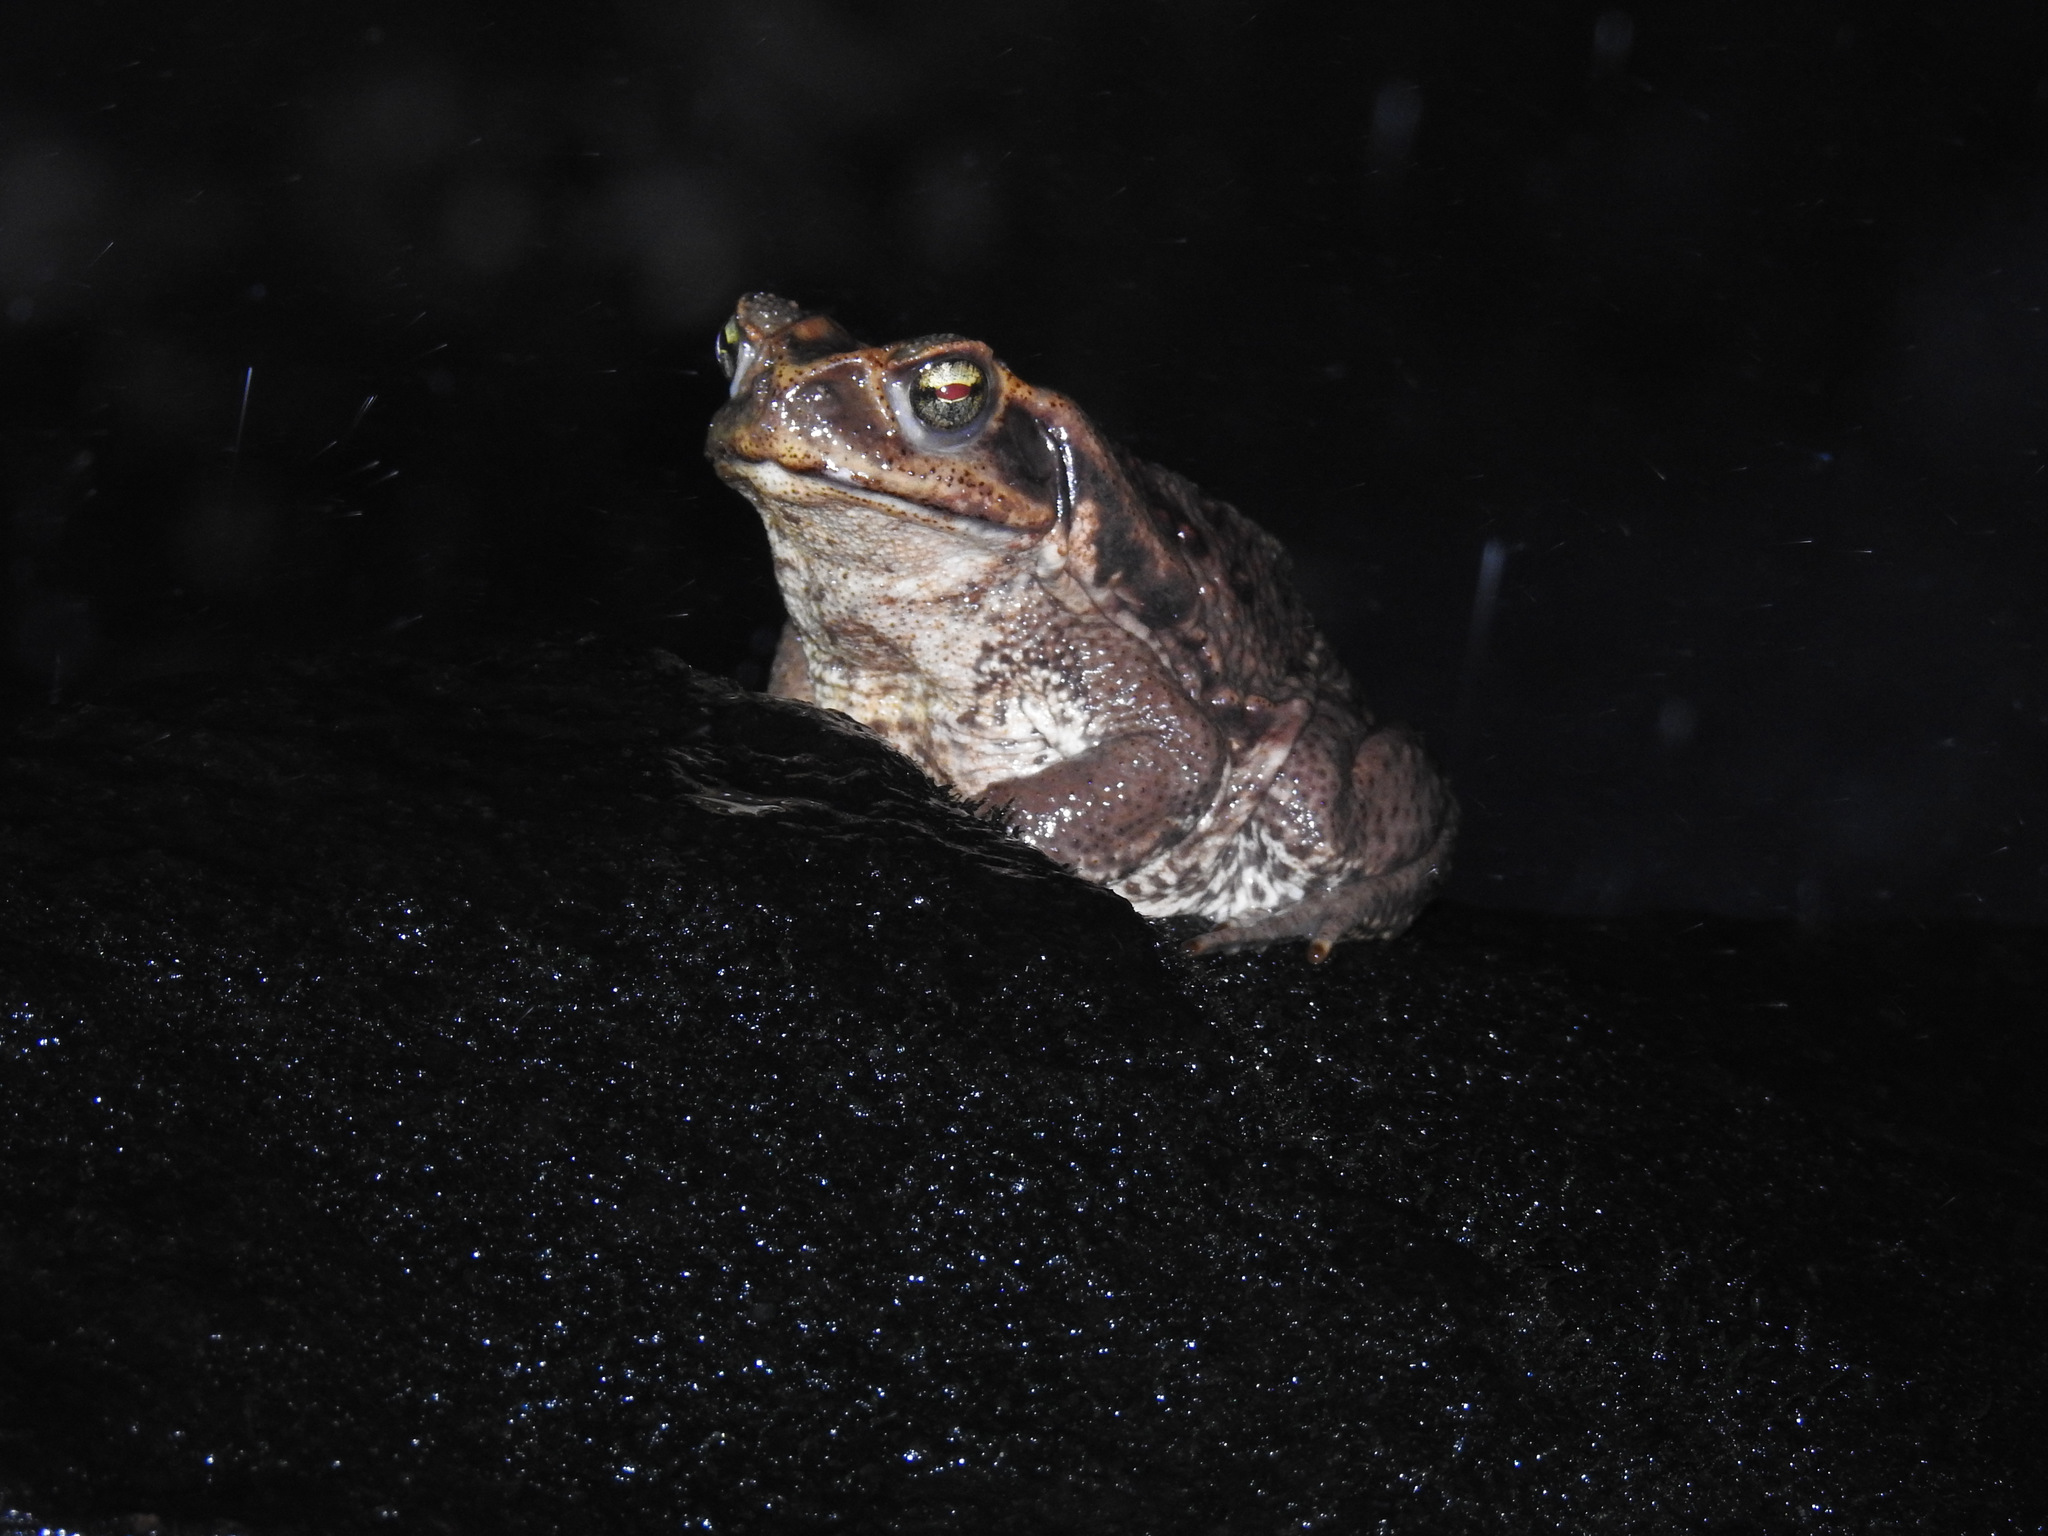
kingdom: Animalia
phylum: Chordata
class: Amphibia
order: Anura
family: Bufonidae
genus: Rhinella
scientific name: Rhinella icterica
